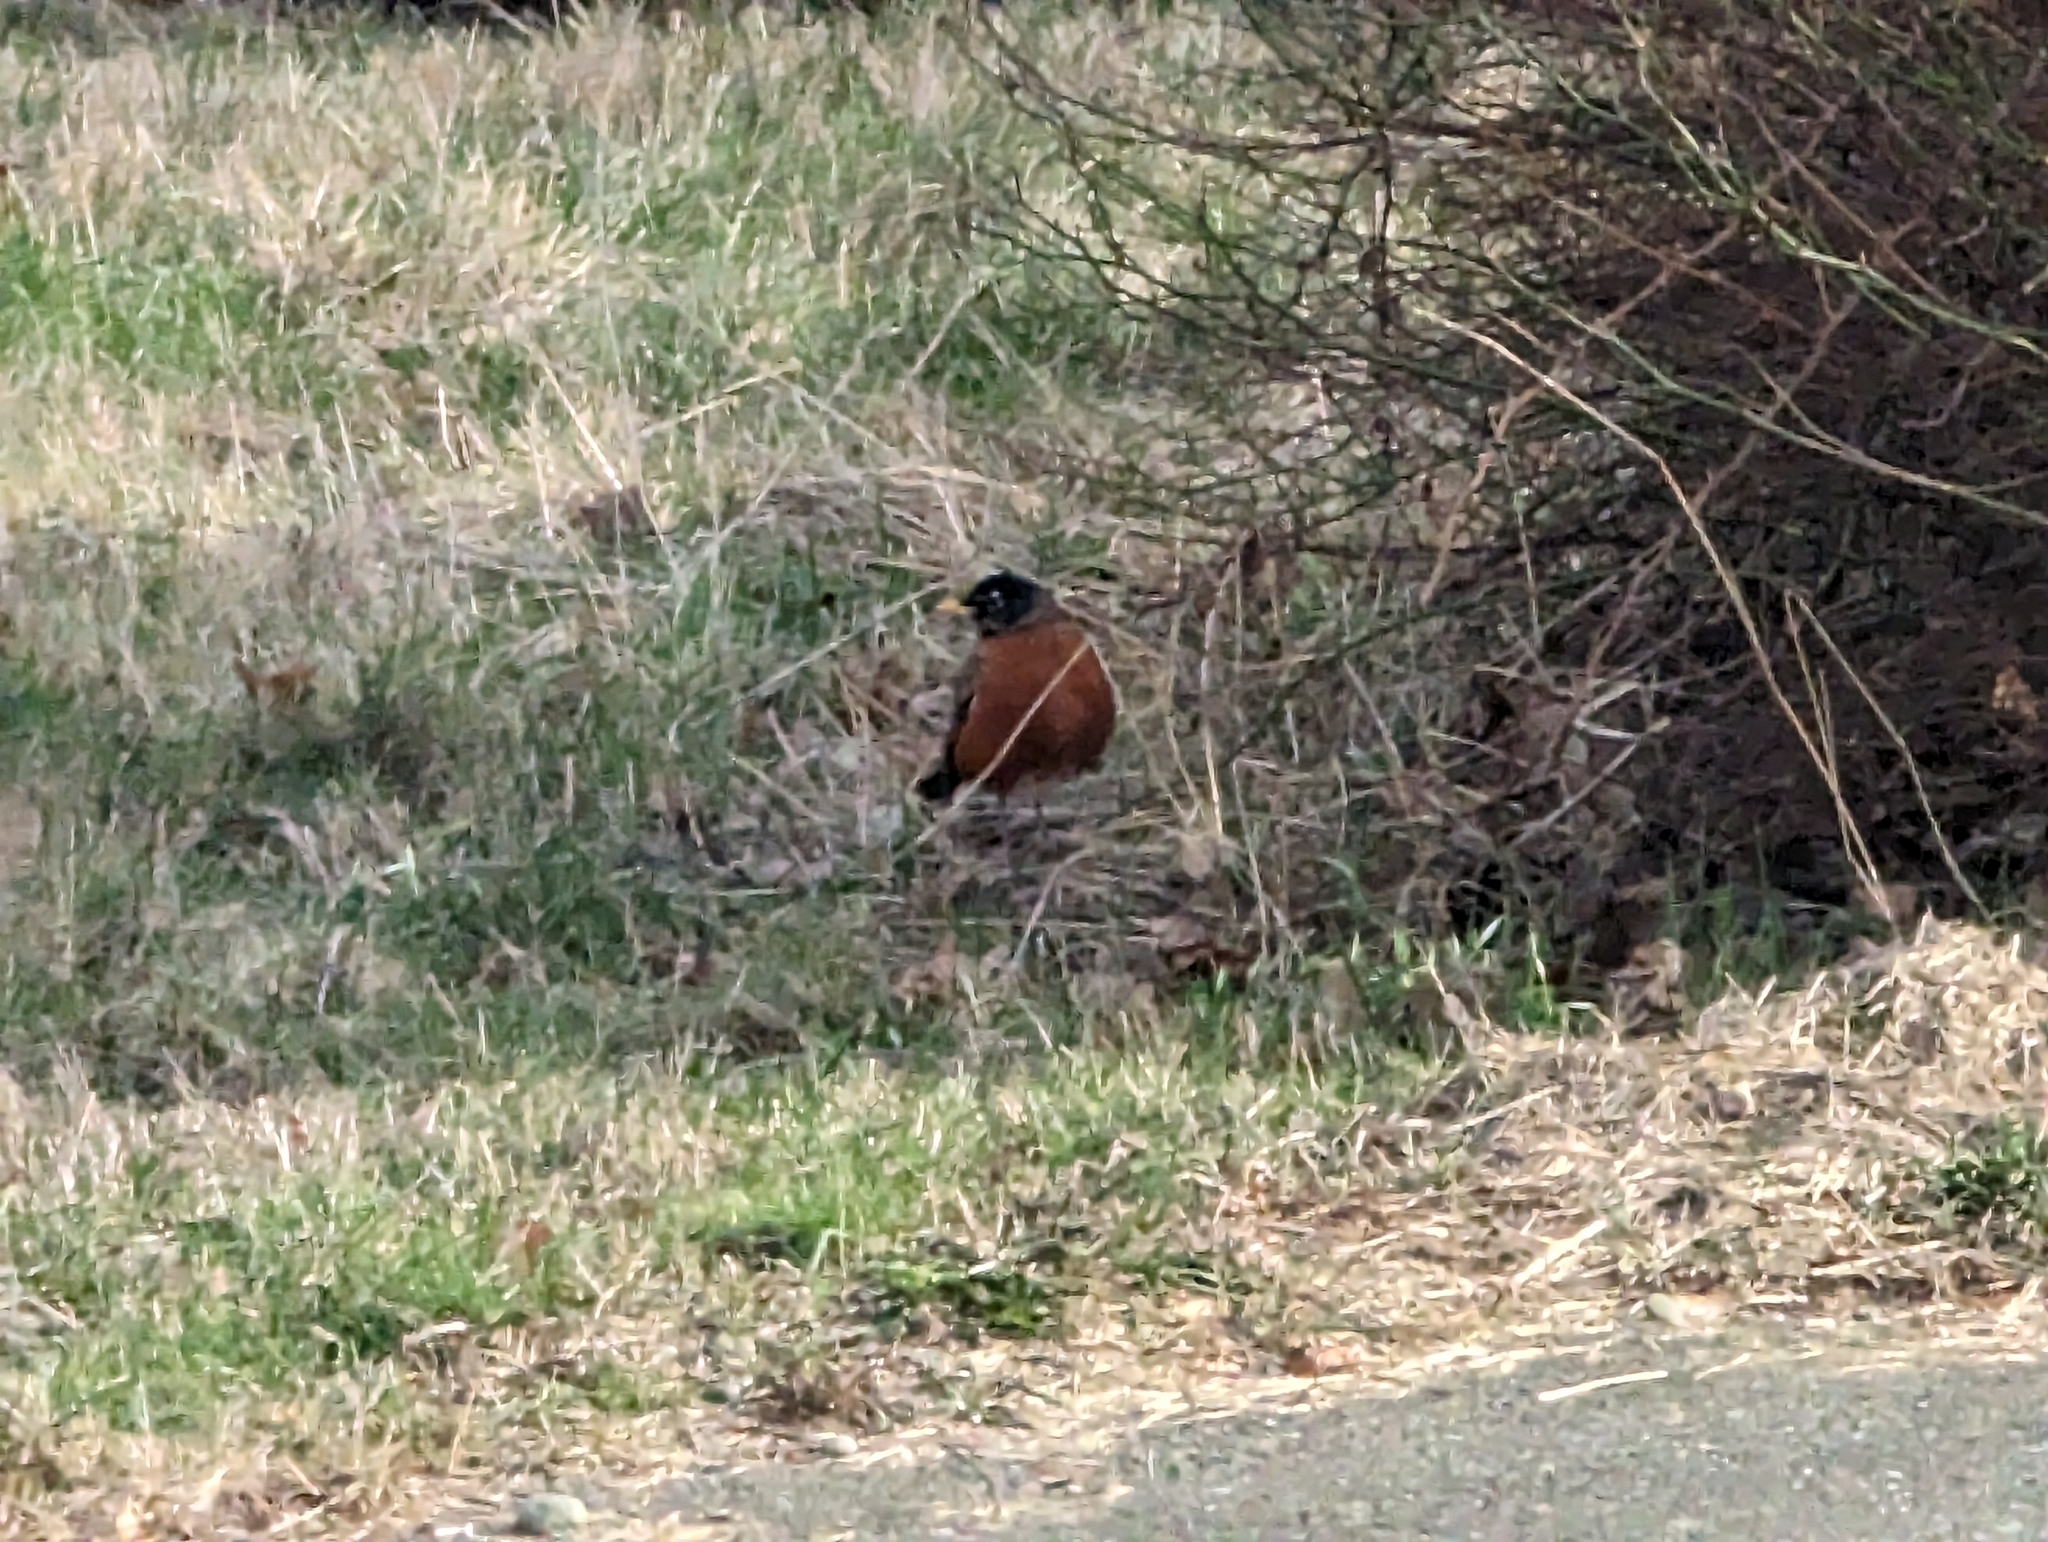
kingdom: Animalia
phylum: Chordata
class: Aves
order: Passeriformes
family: Turdidae
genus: Turdus
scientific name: Turdus migratorius
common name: American robin
